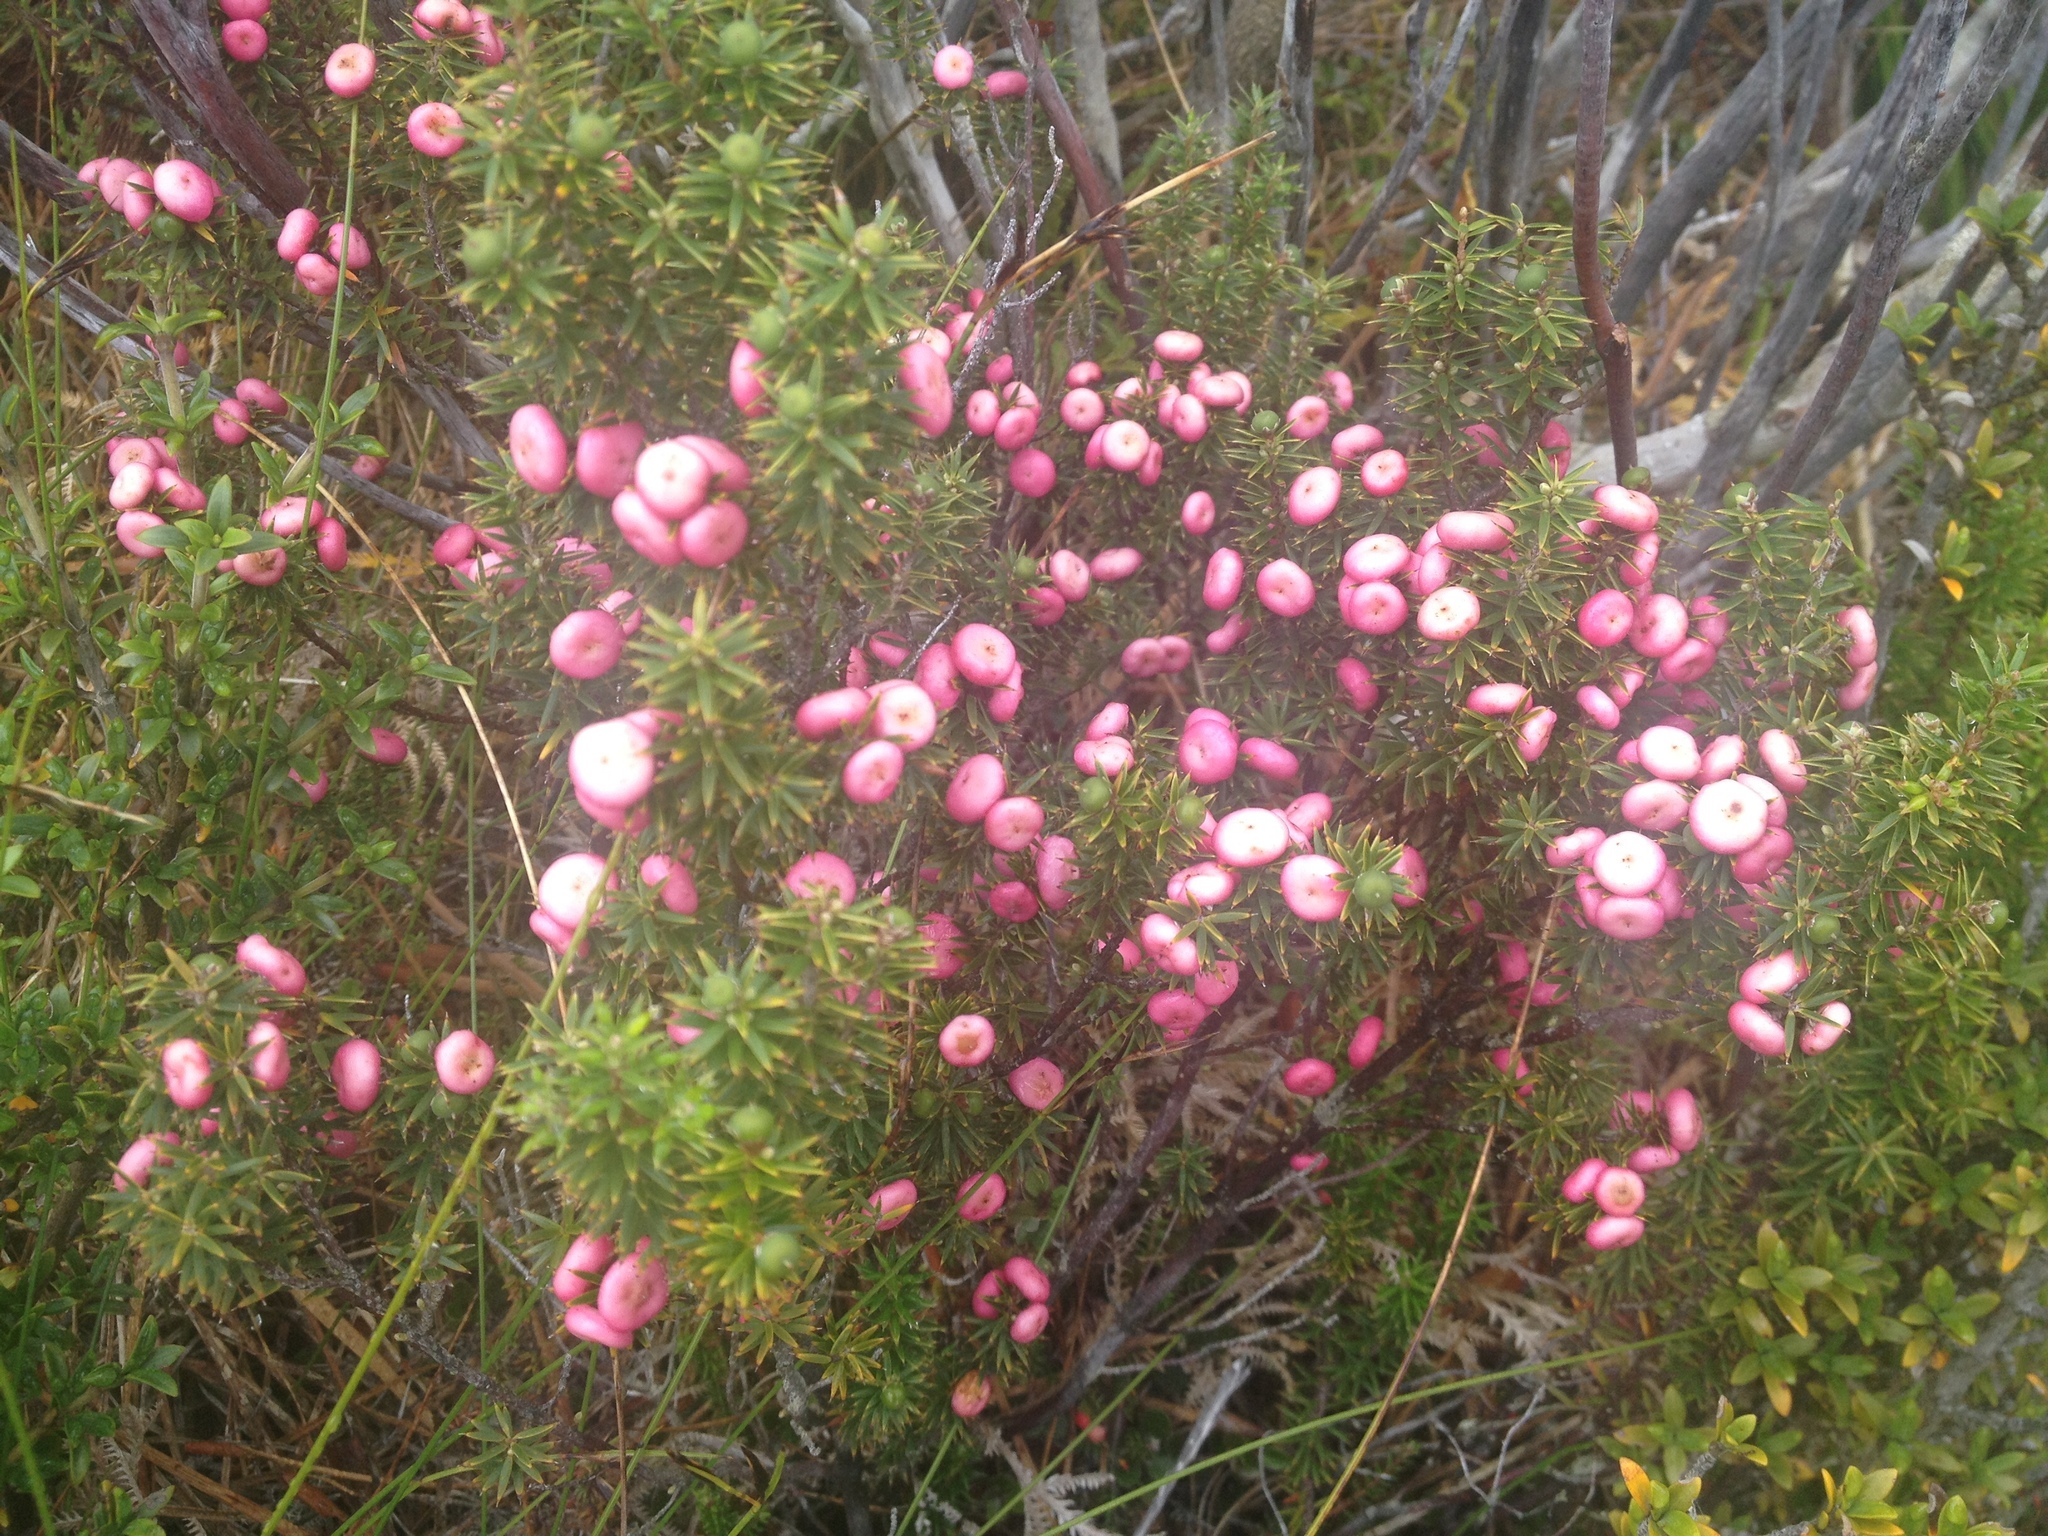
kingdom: Plantae
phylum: Tracheophyta
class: Magnoliopsida
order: Ericales
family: Ericaceae
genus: Leptecophylla
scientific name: Leptecophylla juniperina
